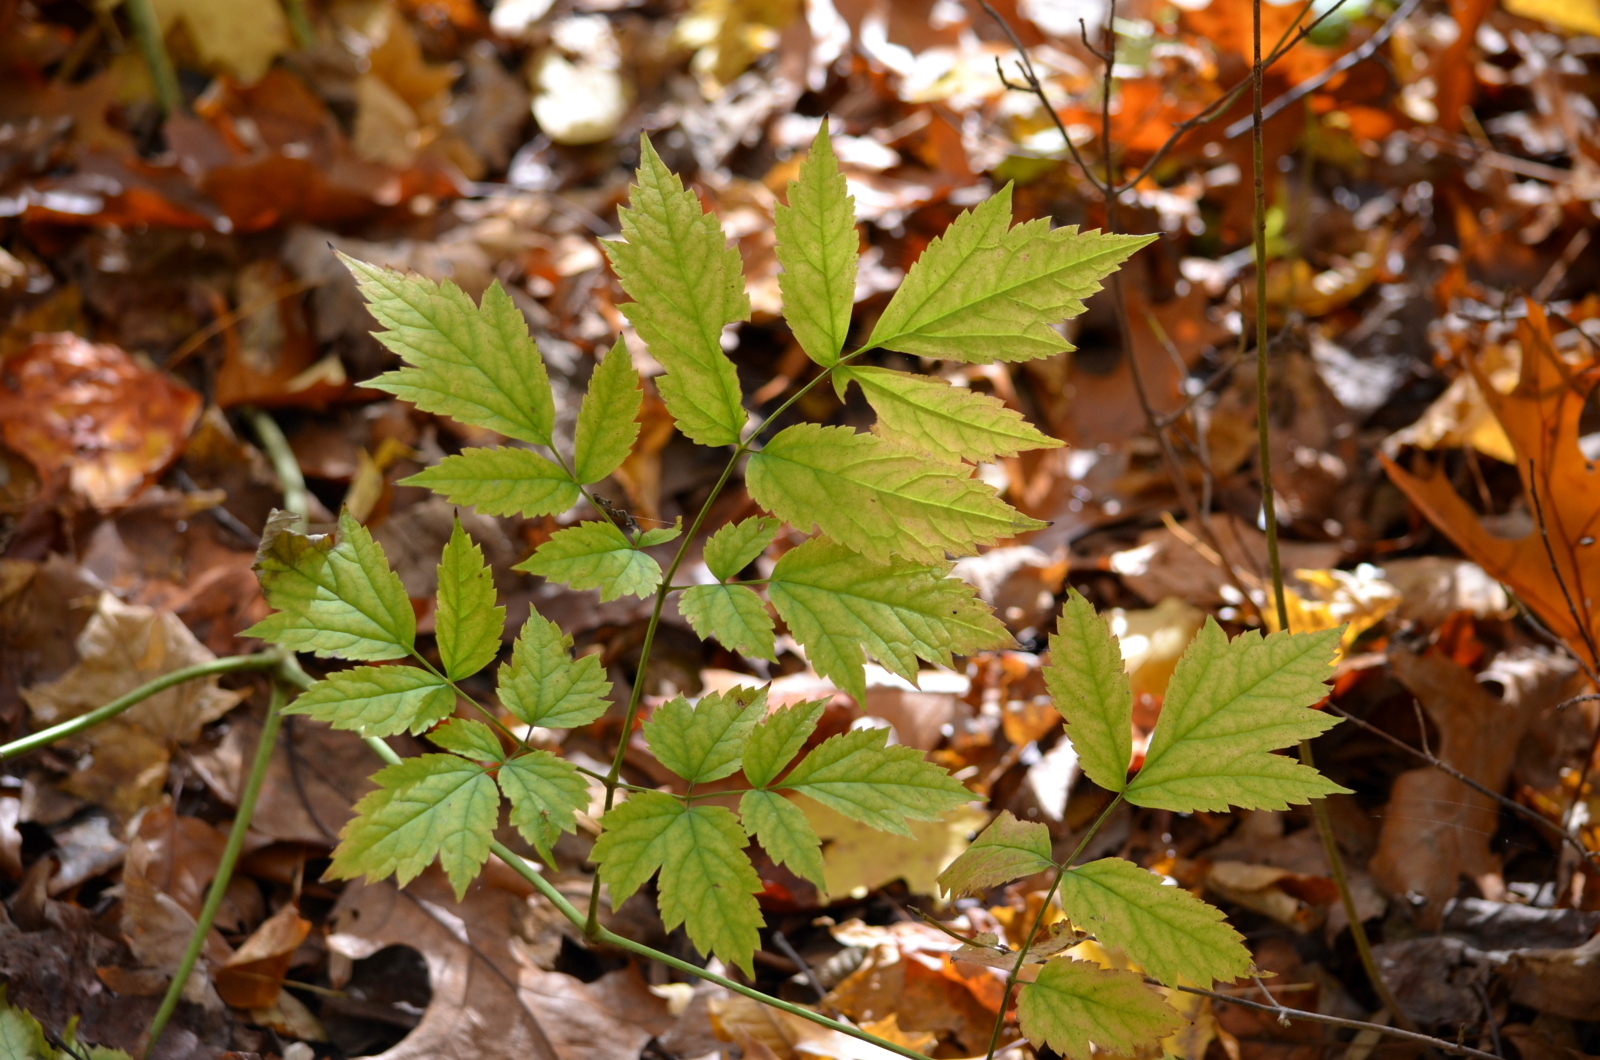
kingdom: Plantae
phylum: Tracheophyta
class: Magnoliopsida
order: Ranunculales
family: Ranunculaceae
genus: Actaea
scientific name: Actaea racemosa
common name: Black cohosh
